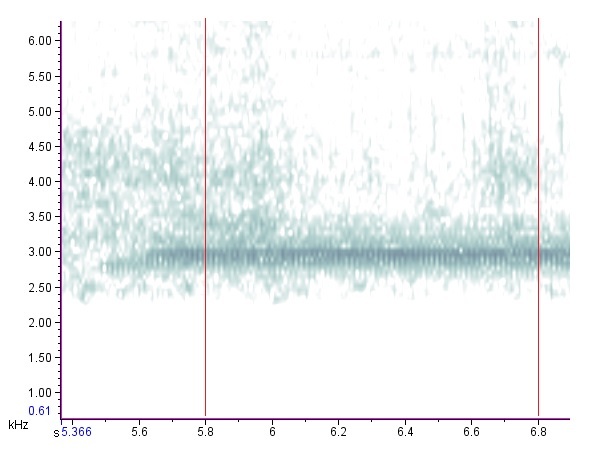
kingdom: Animalia
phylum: Arthropoda
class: Insecta
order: Orthoptera
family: Gryllidae
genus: Oecanthus
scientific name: Oecanthus niveus
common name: Narrow-winged tree cricket
